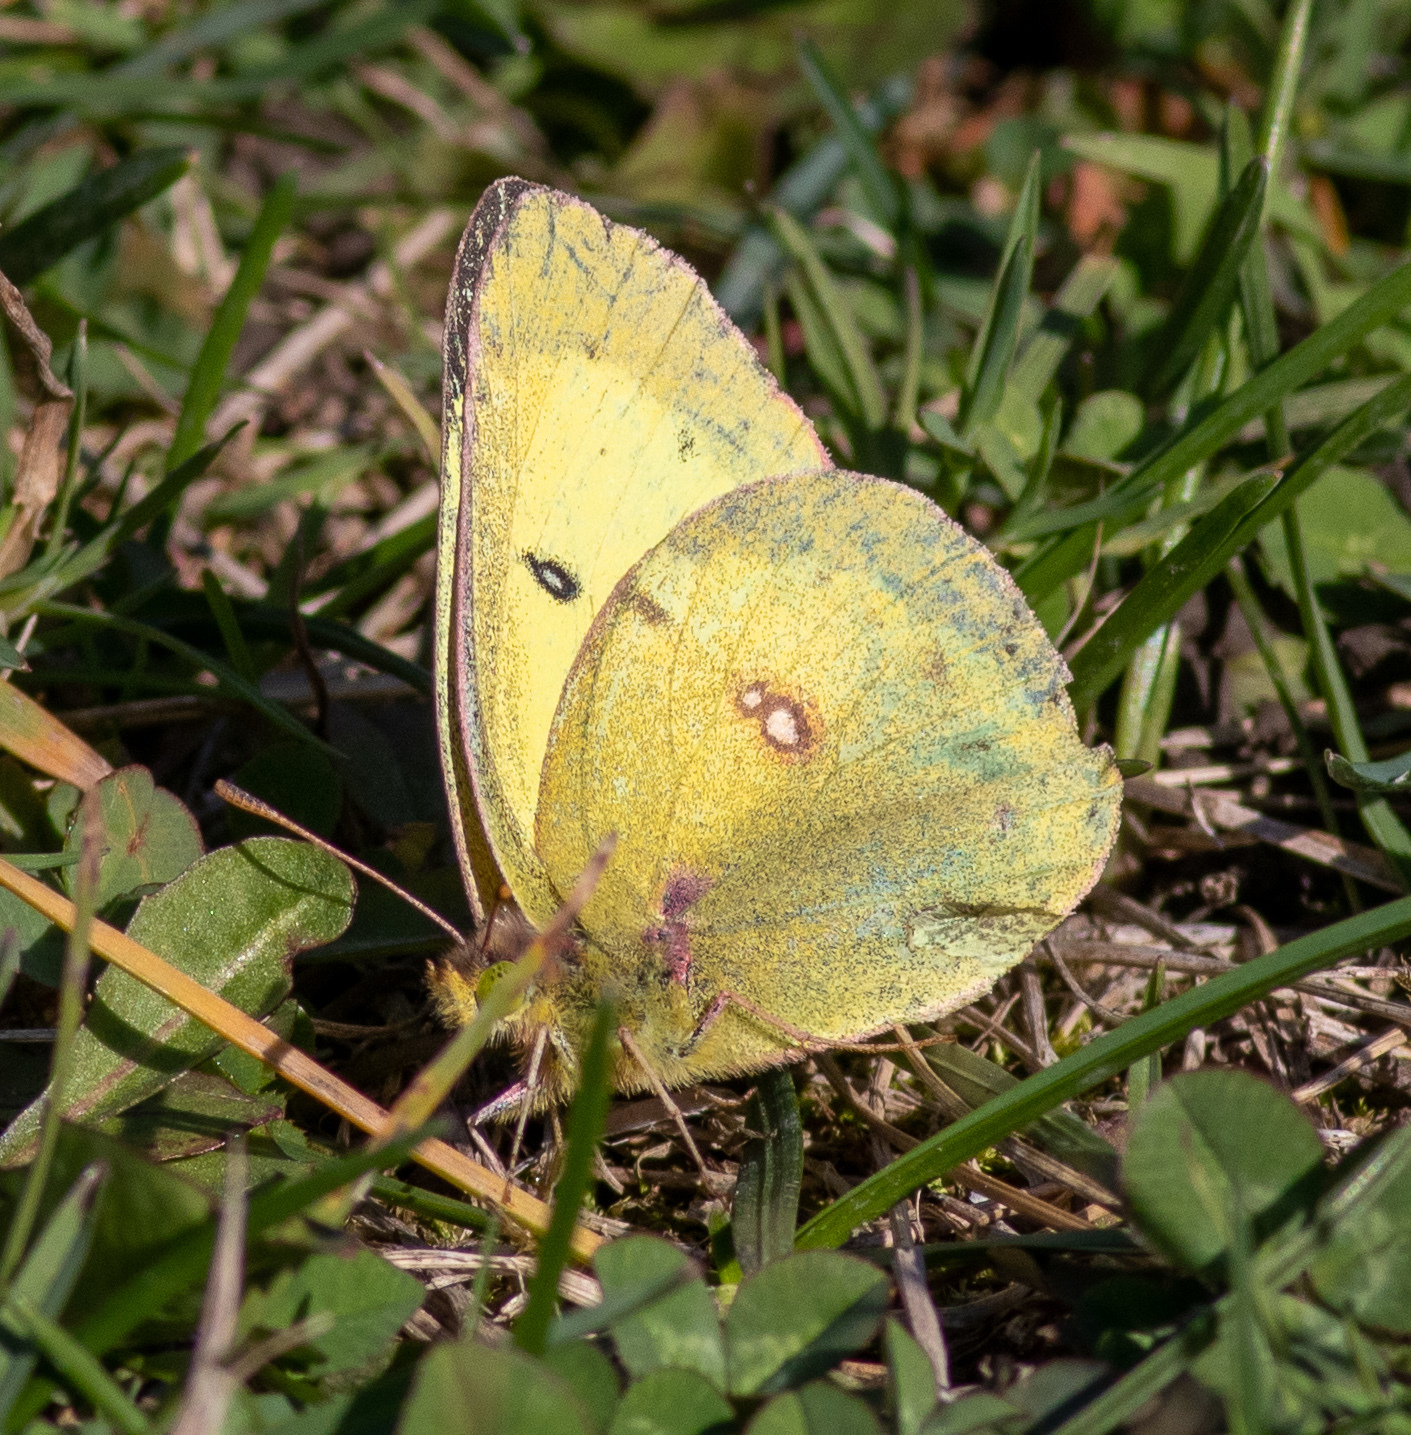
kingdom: Animalia
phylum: Arthropoda
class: Insecta
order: Lepidoptera
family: Pieridae
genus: Colias
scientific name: Colias philodice
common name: Clouded sulphur
